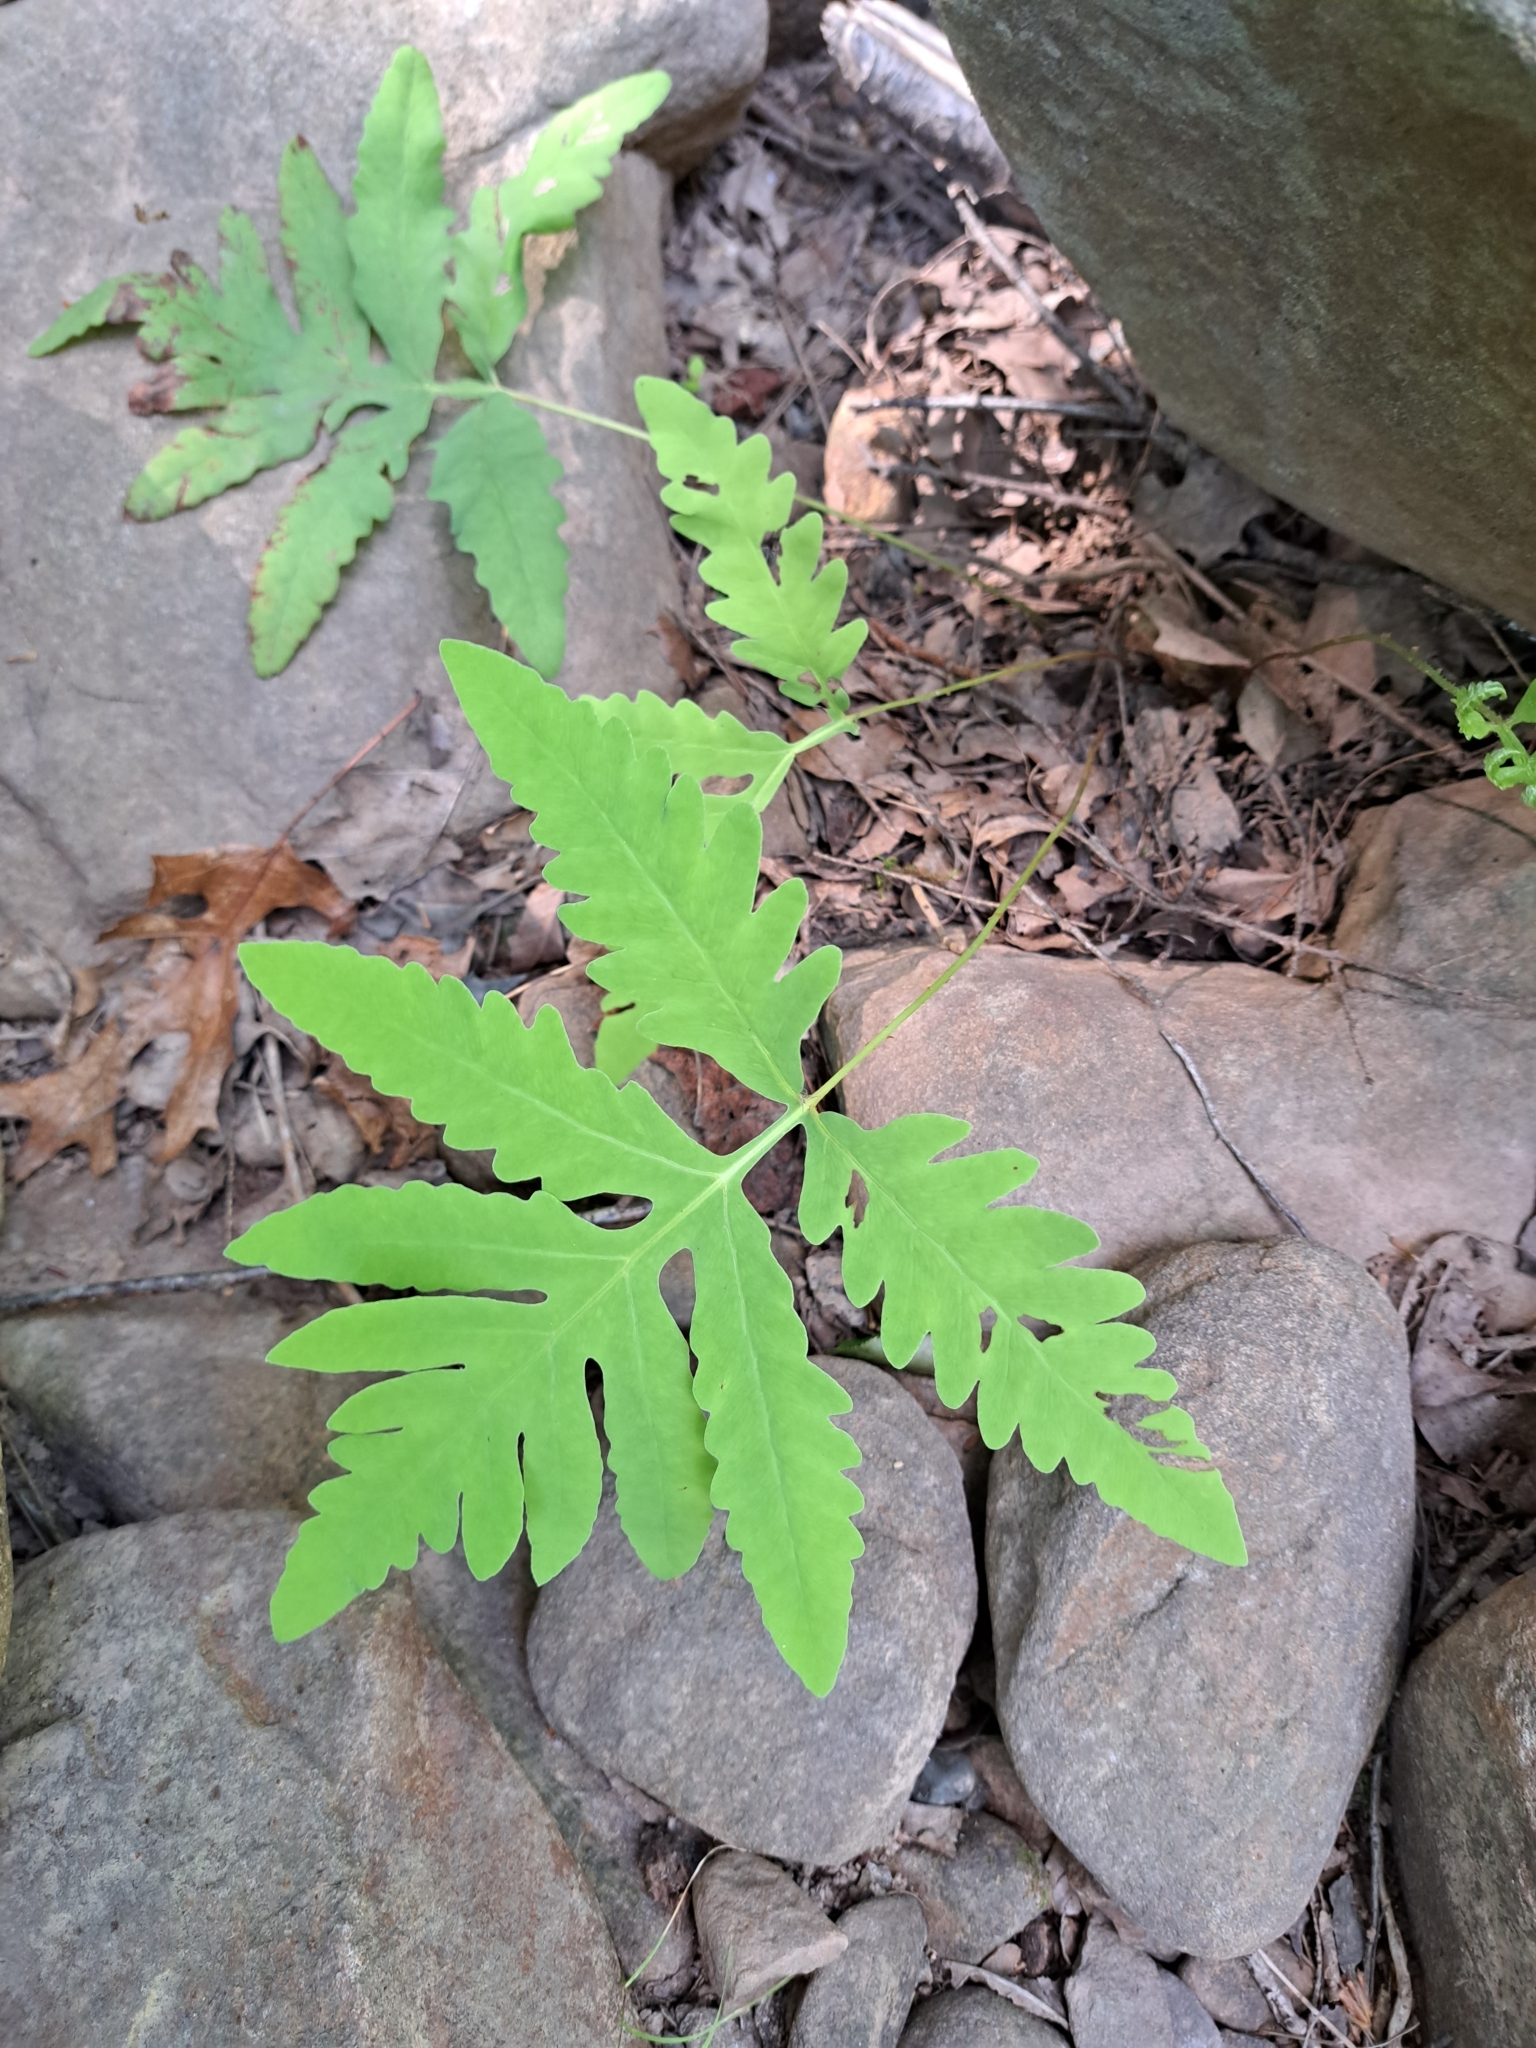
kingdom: Plantae
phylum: Tracheophyta
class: Polypodiopsida
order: Polypodiales
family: Onocleaceae
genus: Onoclea
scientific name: Onoclea sensibilis
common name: Sensitive fern
